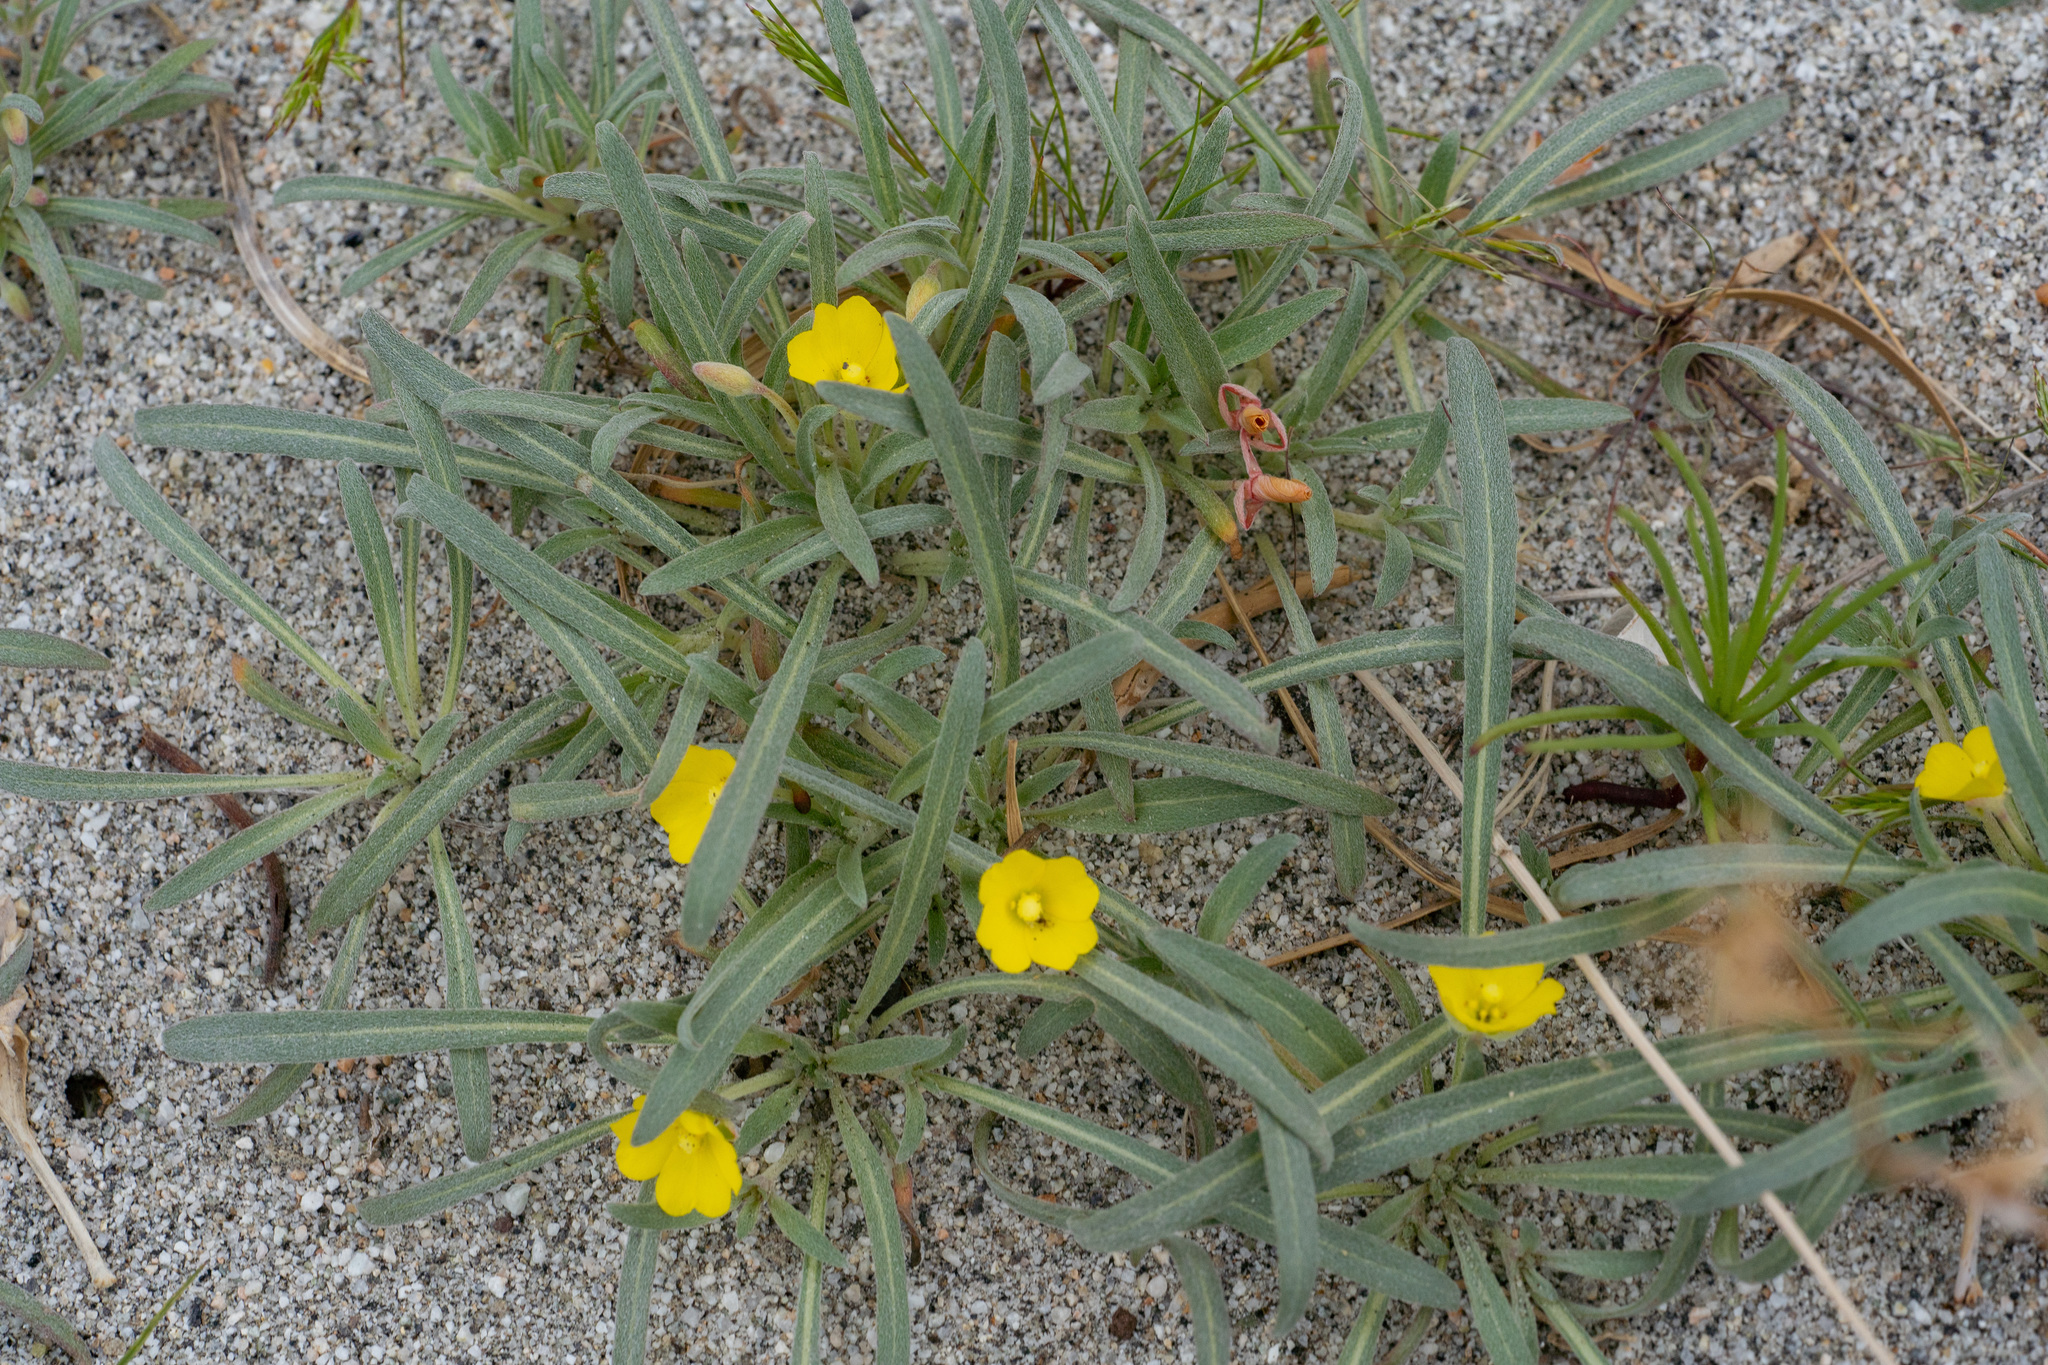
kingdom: Plantae
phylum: Tracheophyta
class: Magnoliopsida
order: Myrtales
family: Onagraceae
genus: Camissoniopsis
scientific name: Camissoniopsis pallida
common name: Paleyellow suncup
